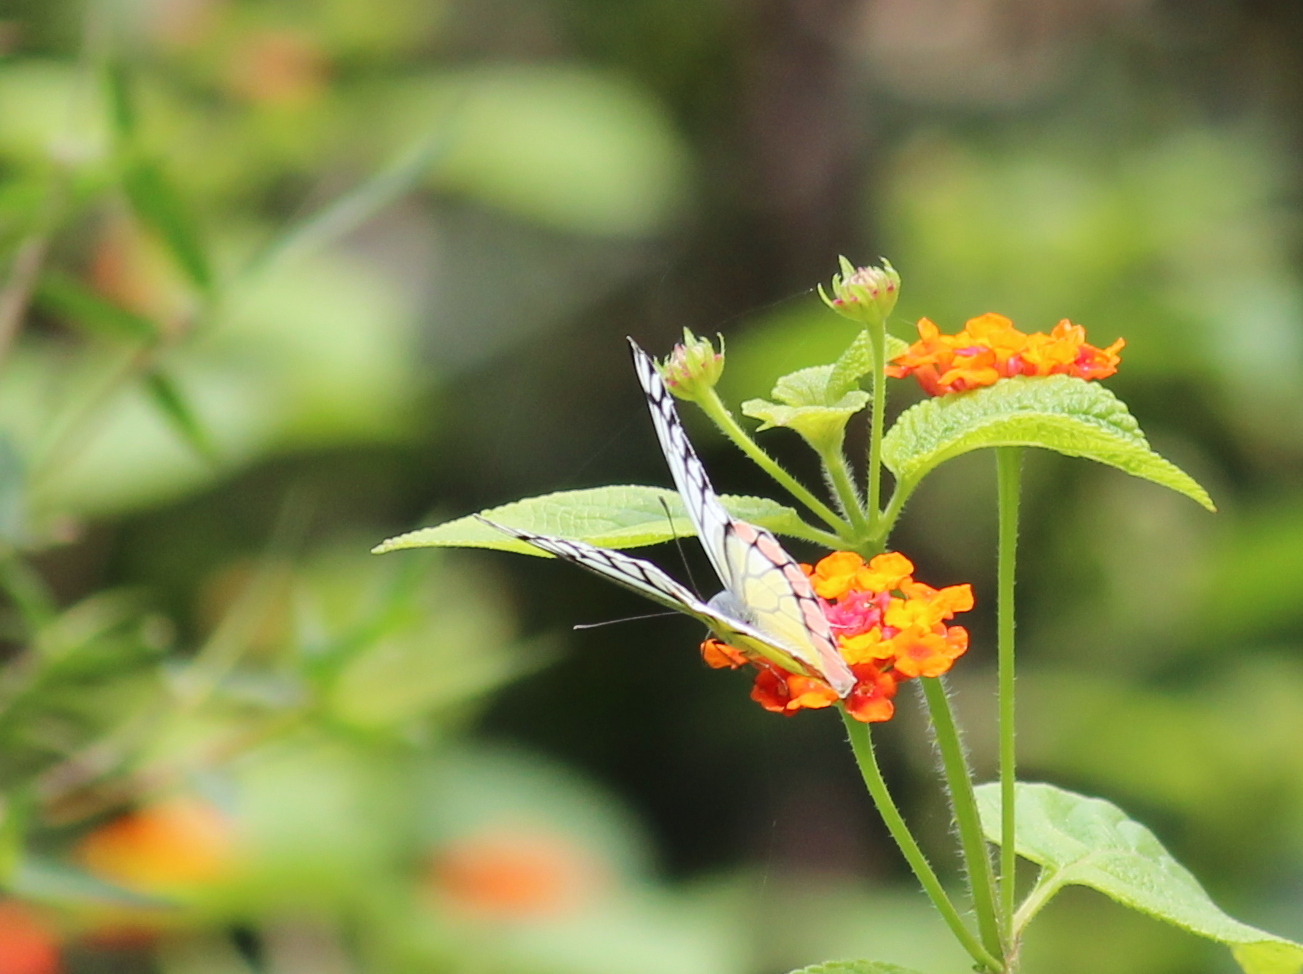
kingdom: Animalia
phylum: Arthropoda
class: Insecta
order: Lepidoptera
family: Pieridae
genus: Delias
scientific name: Delias eucharis
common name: Common jezebel
